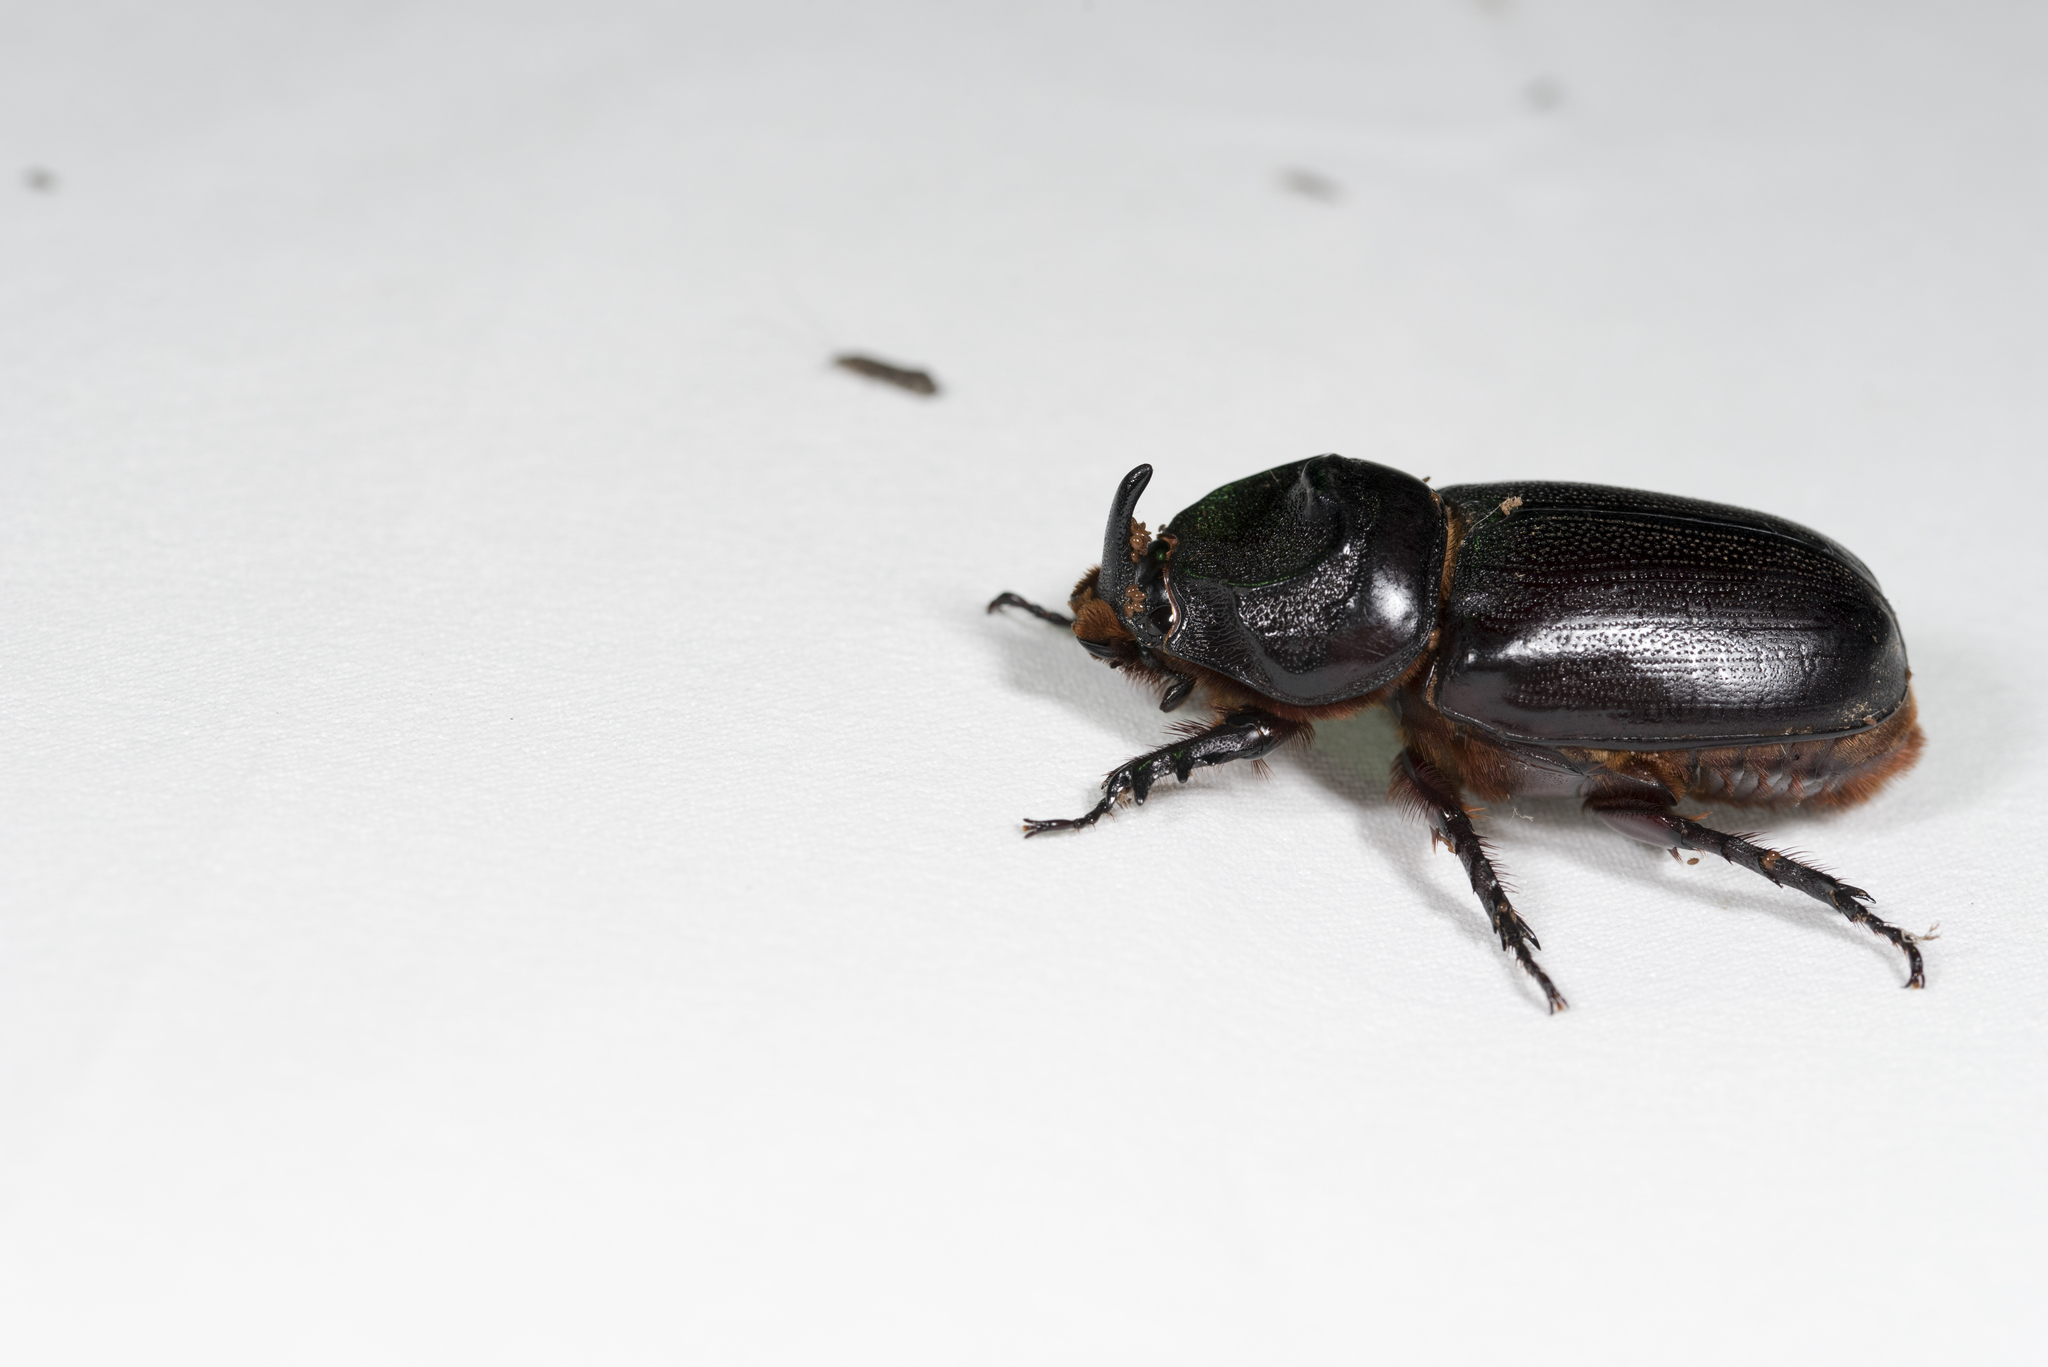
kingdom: Animalia
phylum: Arthropoda
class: Insecta
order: Coleoptera
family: Scarabaeidae
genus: Oryctes
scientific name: Oryctes rhinoceros
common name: Coconut rhinoceros beetle
